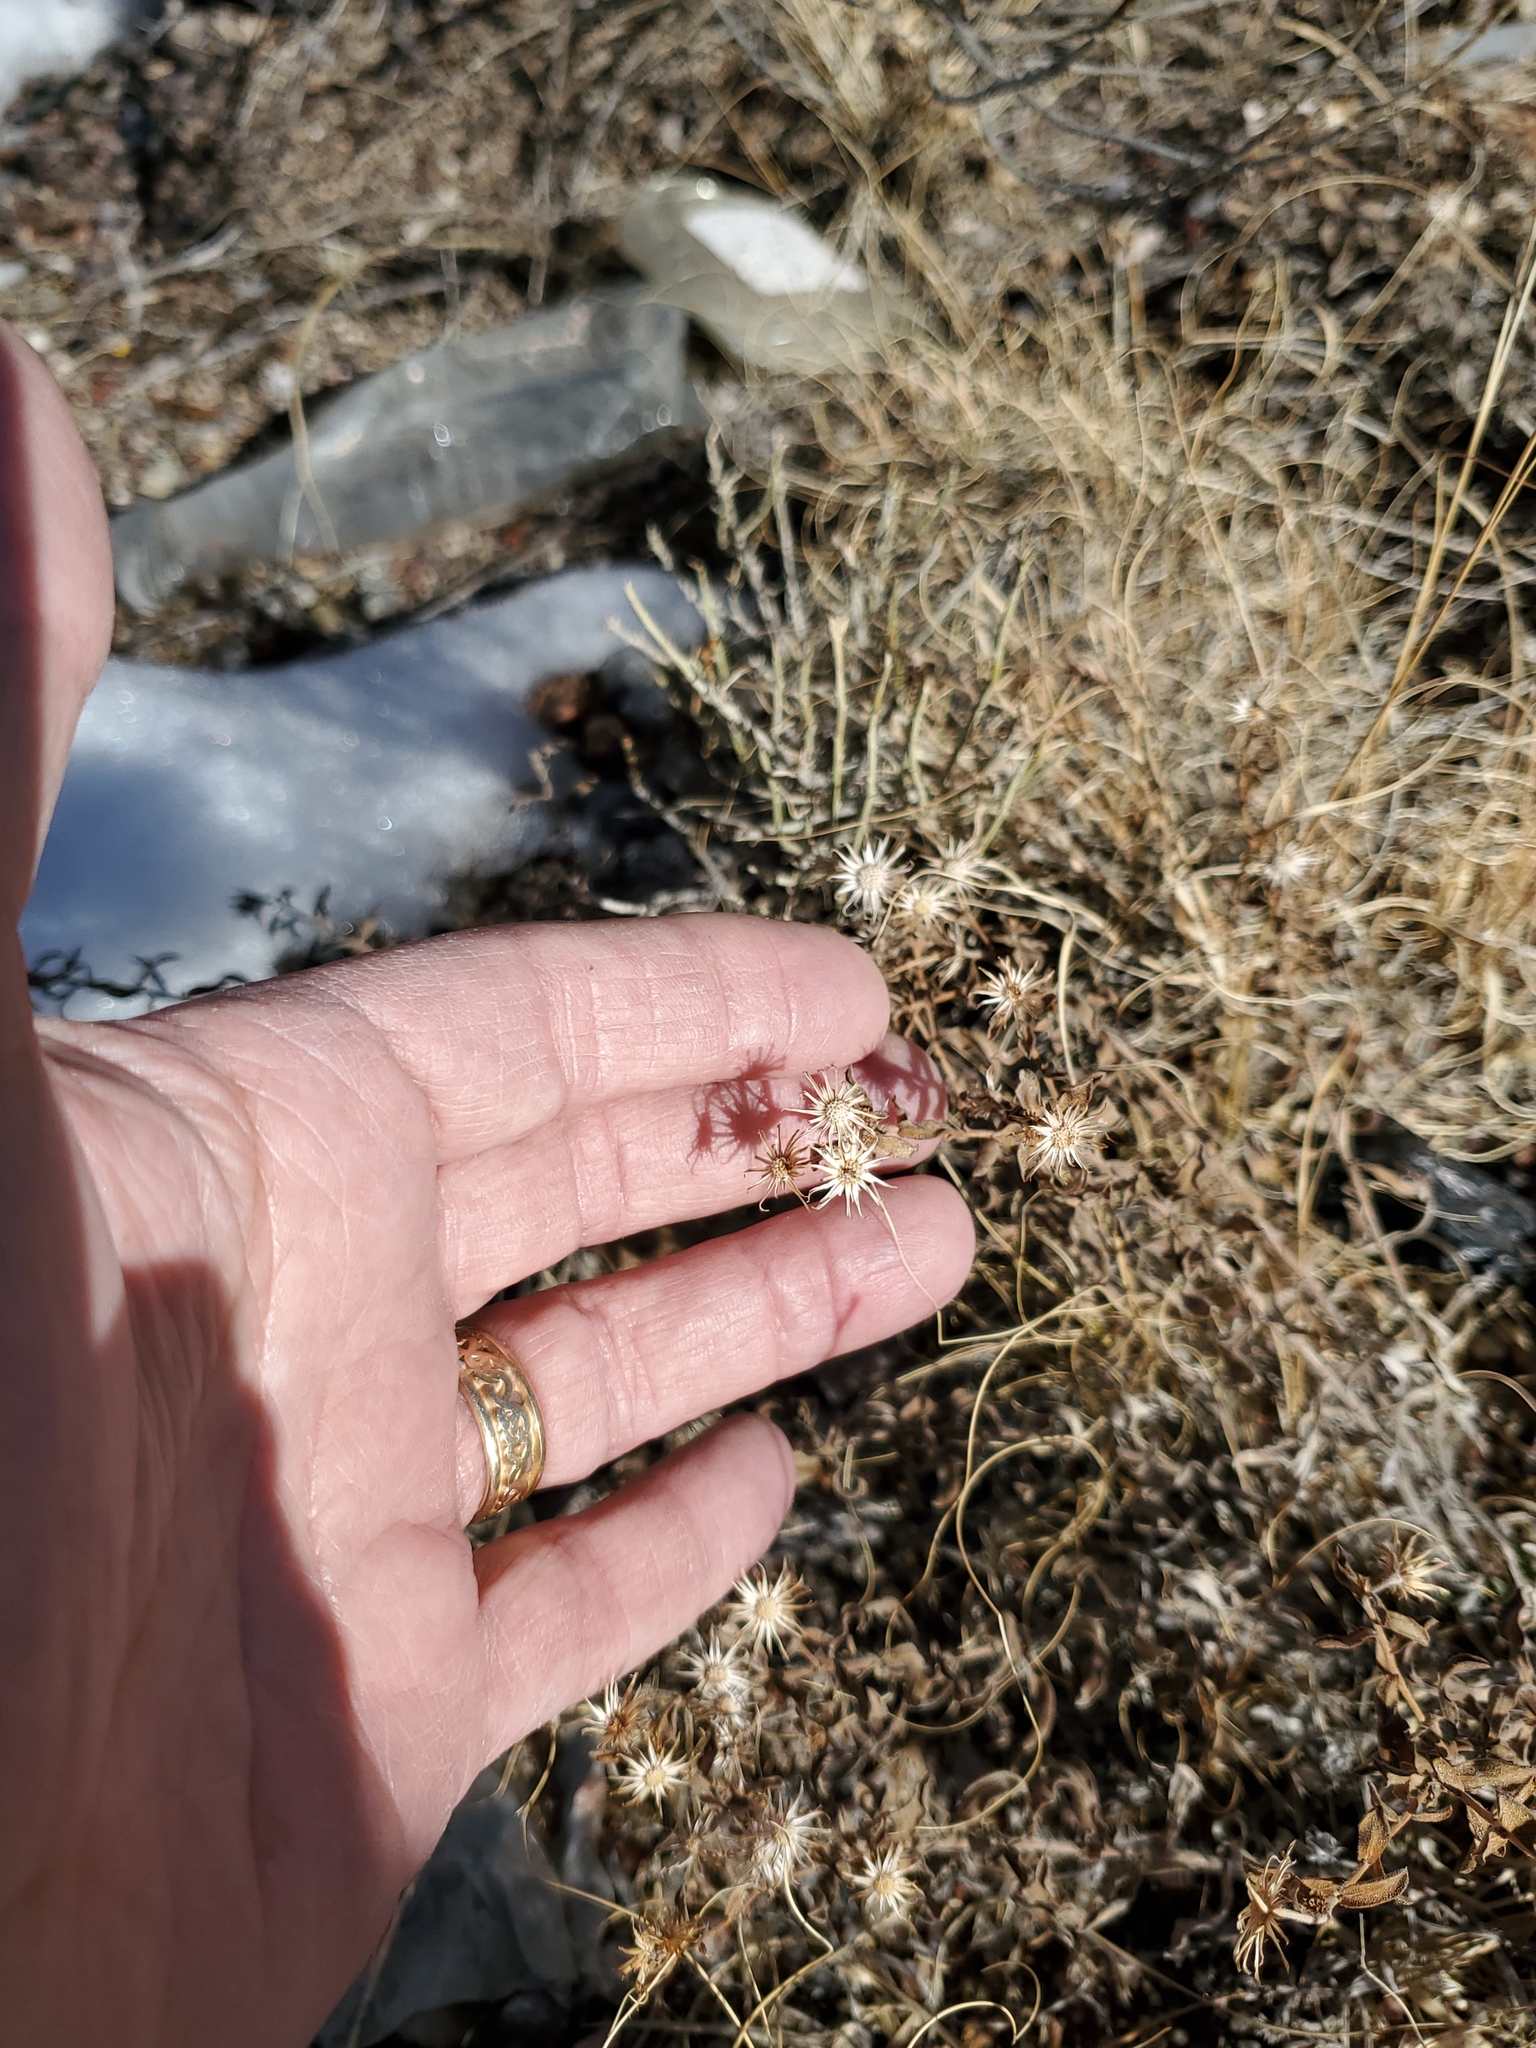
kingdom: Plantae
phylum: Tracheophyta
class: Magnoliopsida
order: Asterales
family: Asteraceae
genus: Heterotheca
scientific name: Heterotheca hirsutissima
